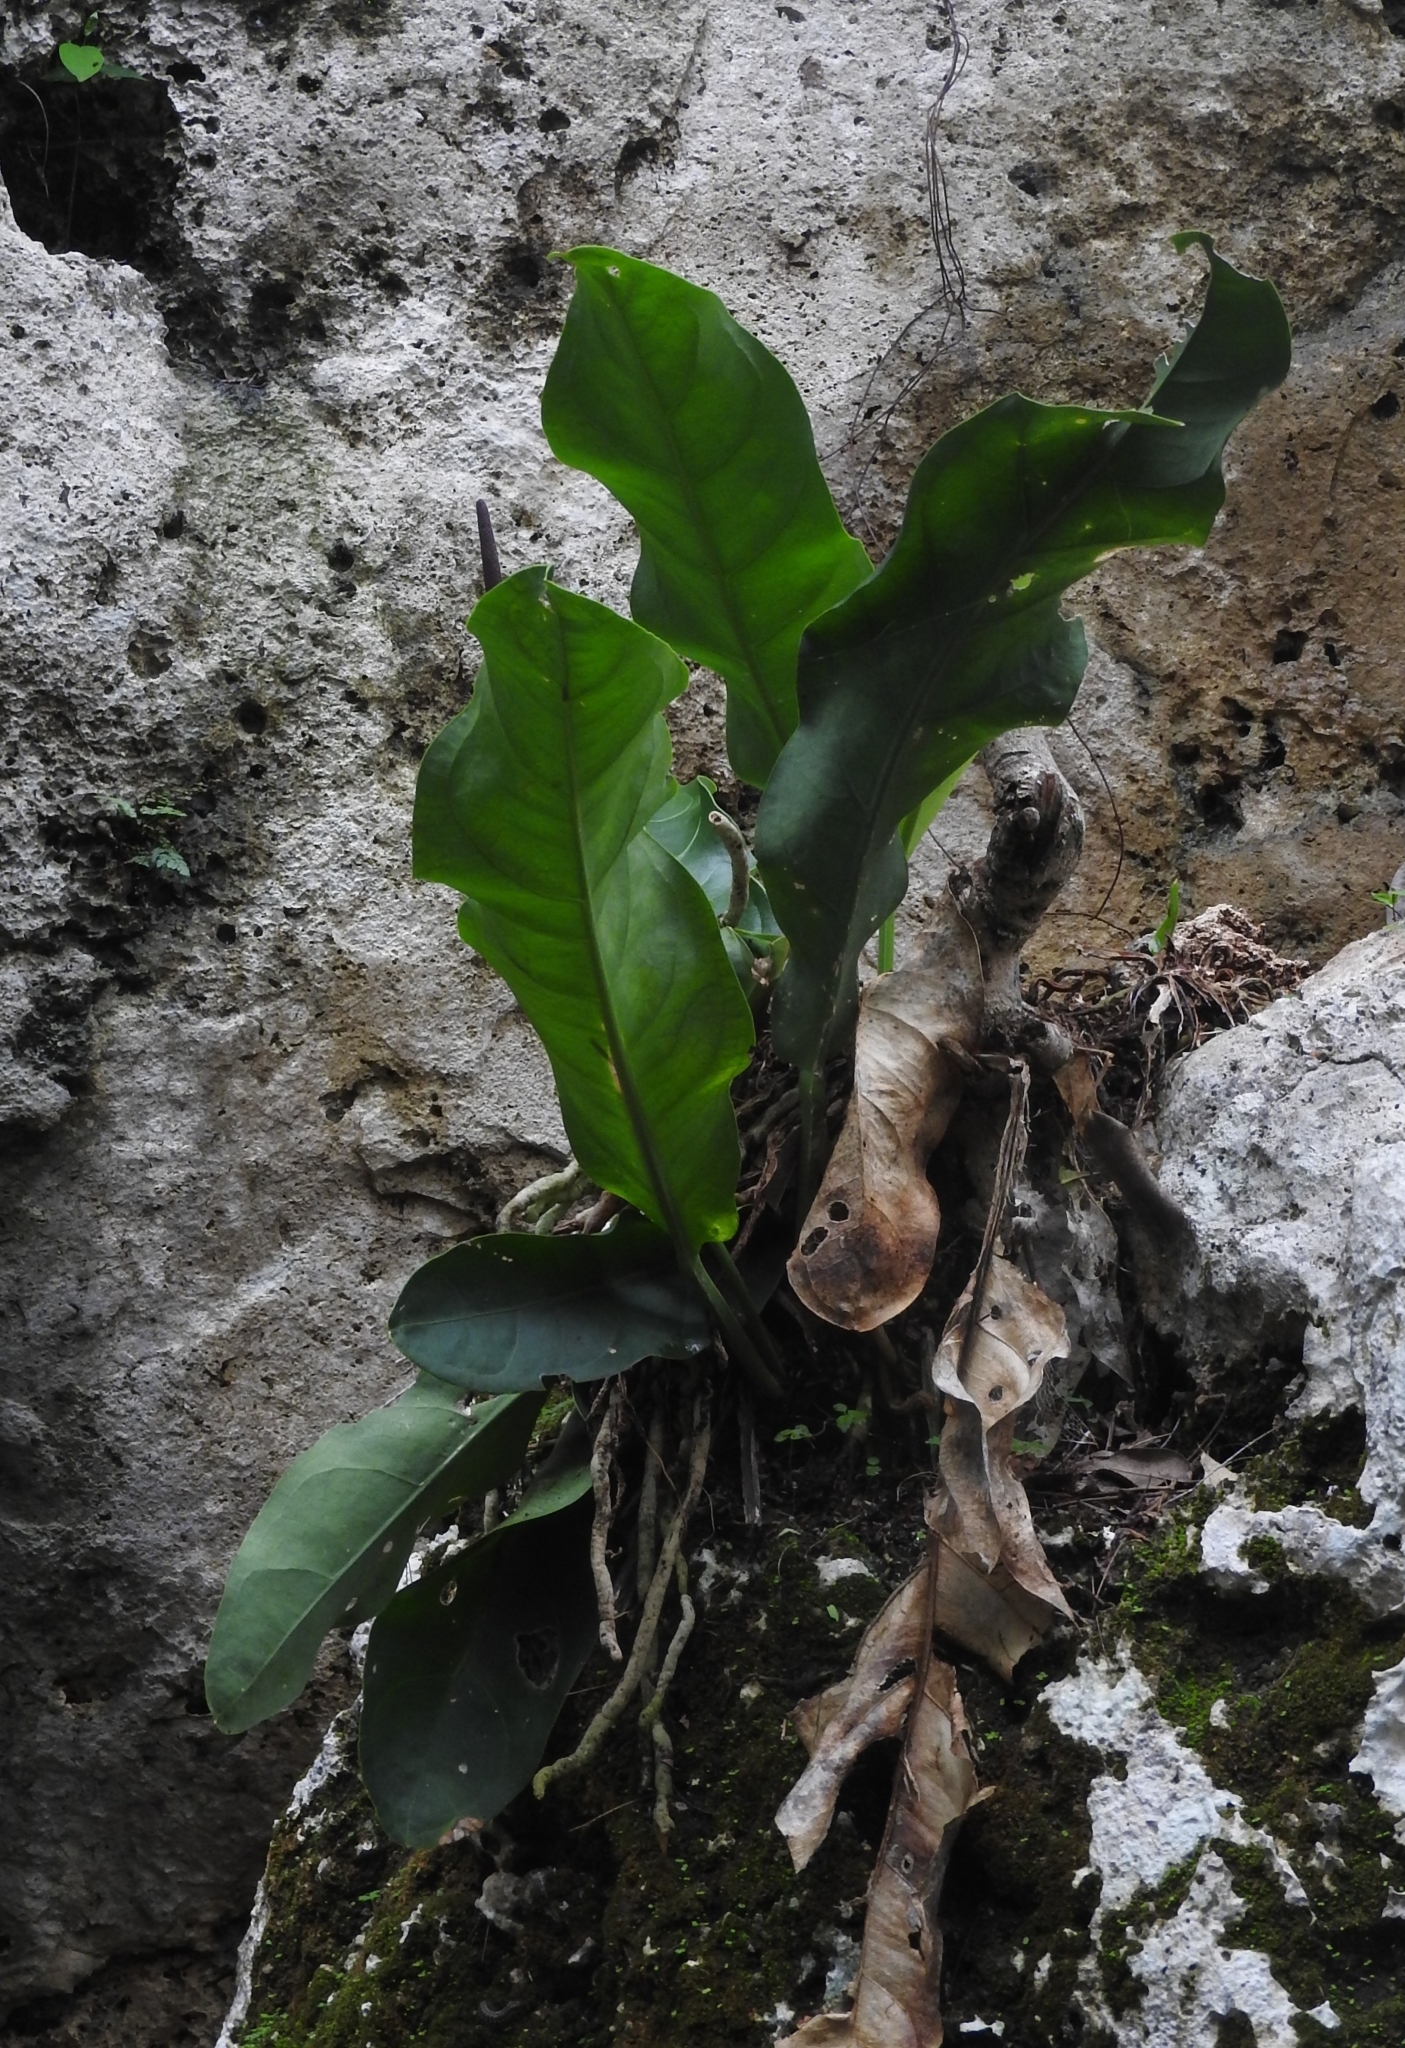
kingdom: Plantae
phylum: Tracheophyta
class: Liliopsida
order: Alismatales
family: Araceae
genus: Anthurium
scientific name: Anthurium schlechtendalii
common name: Laceleaf
